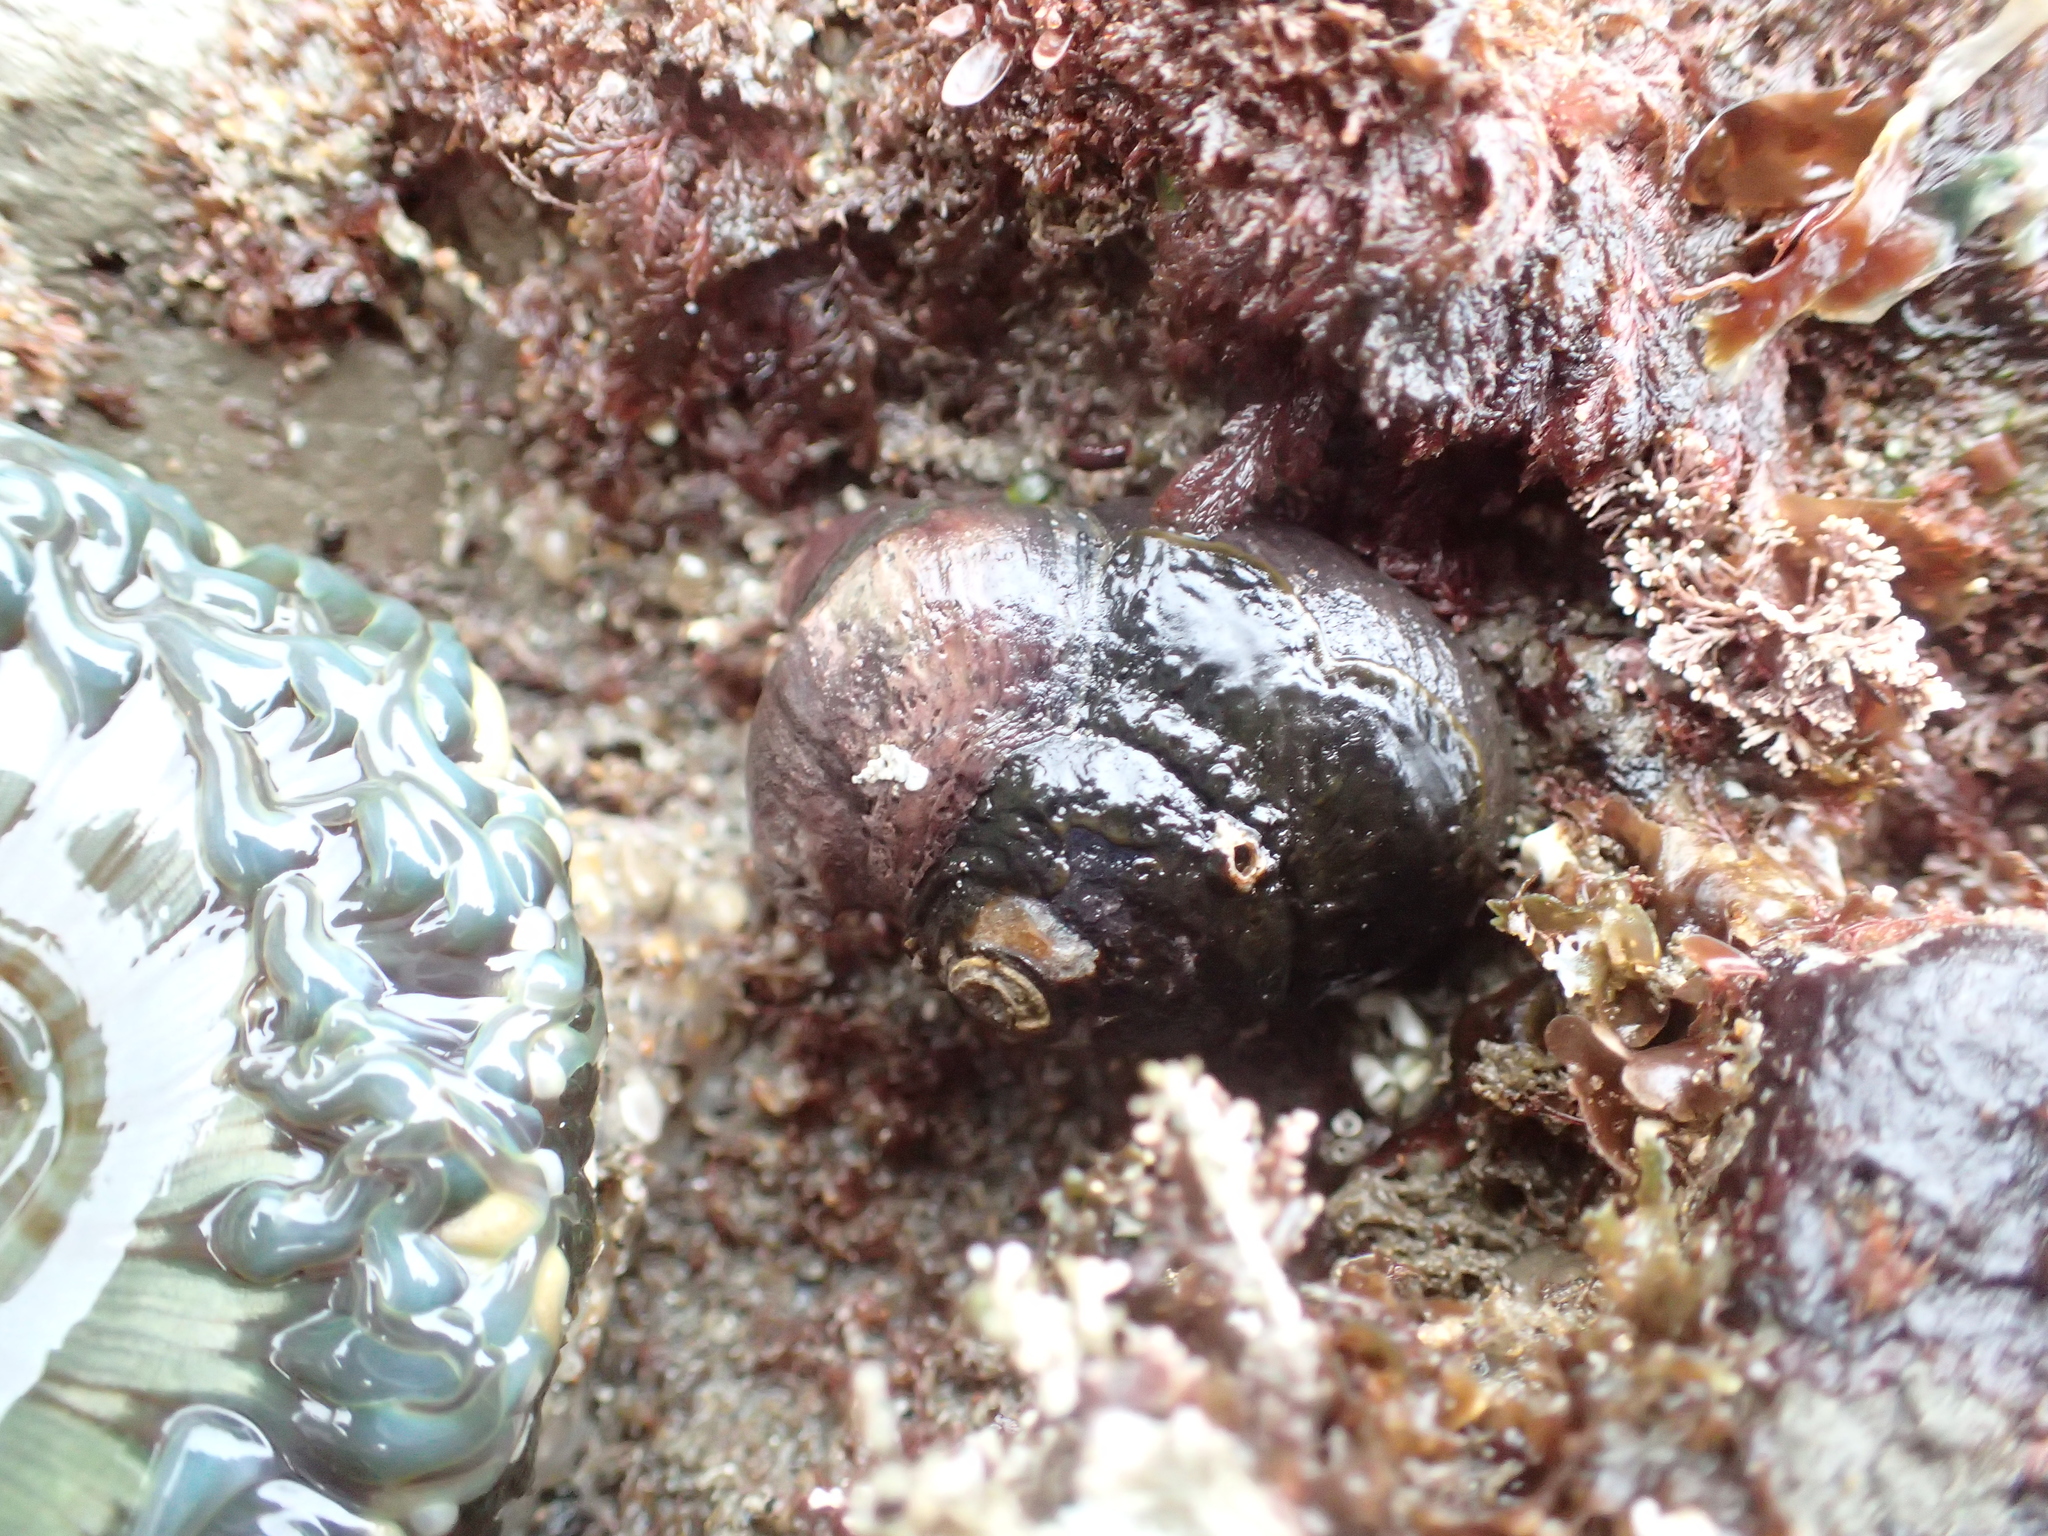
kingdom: Animalia
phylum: Mollusca
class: Gastropoda
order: Trochida
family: Tegulidae
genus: Tegula
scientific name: Tegula funebralis
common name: Black tegula
